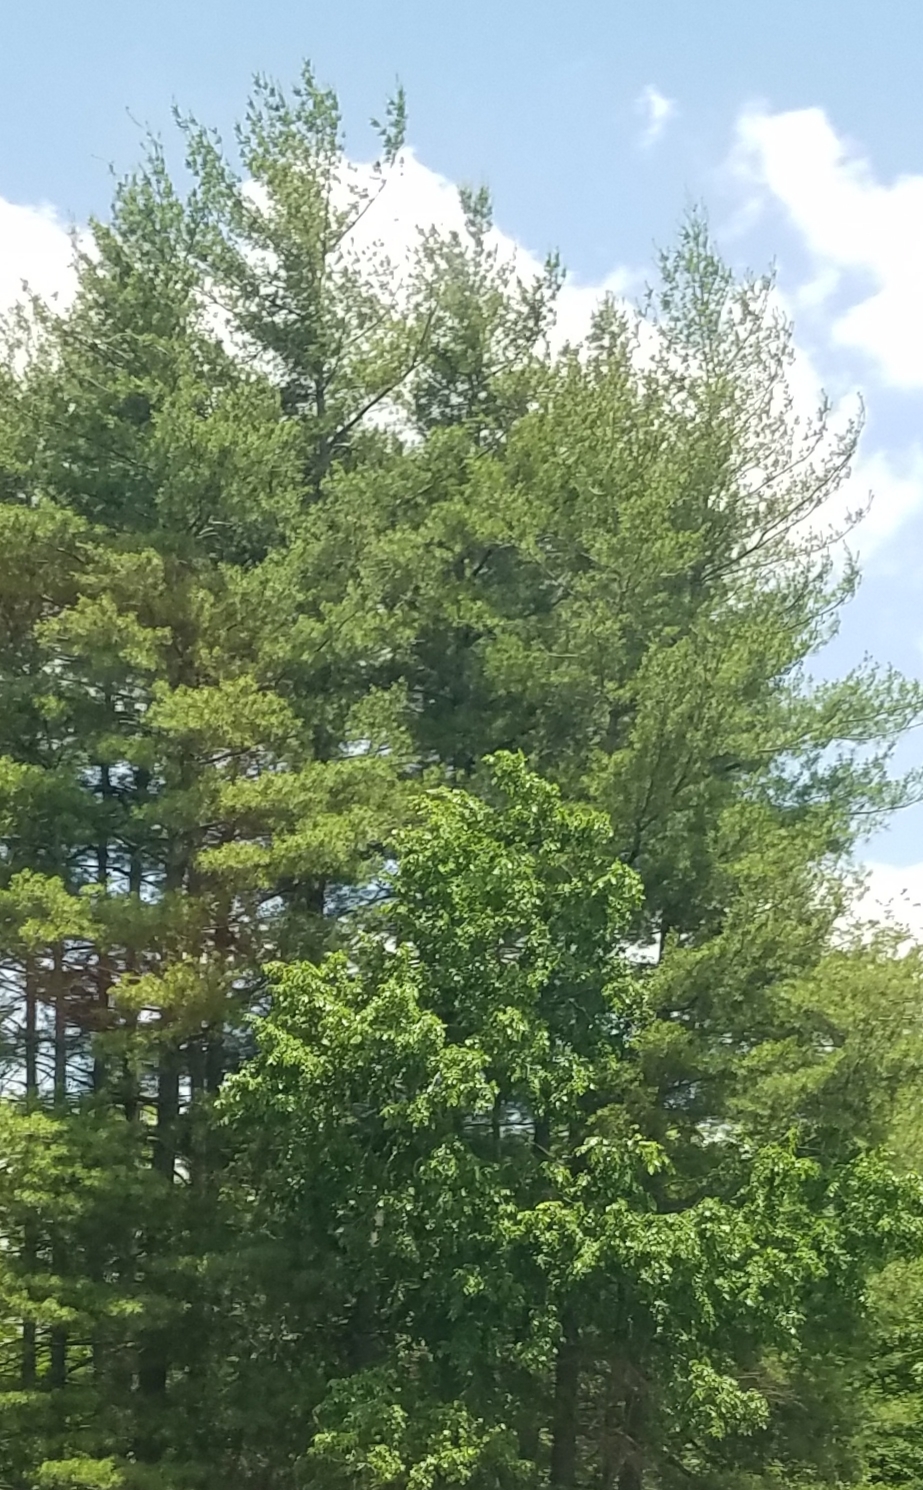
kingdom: Plantae
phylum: Tracheophyta
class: Pinopsida
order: Pinales
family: Pinaceae
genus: Pinus
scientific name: Pinus strobus
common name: Weymouth pine
